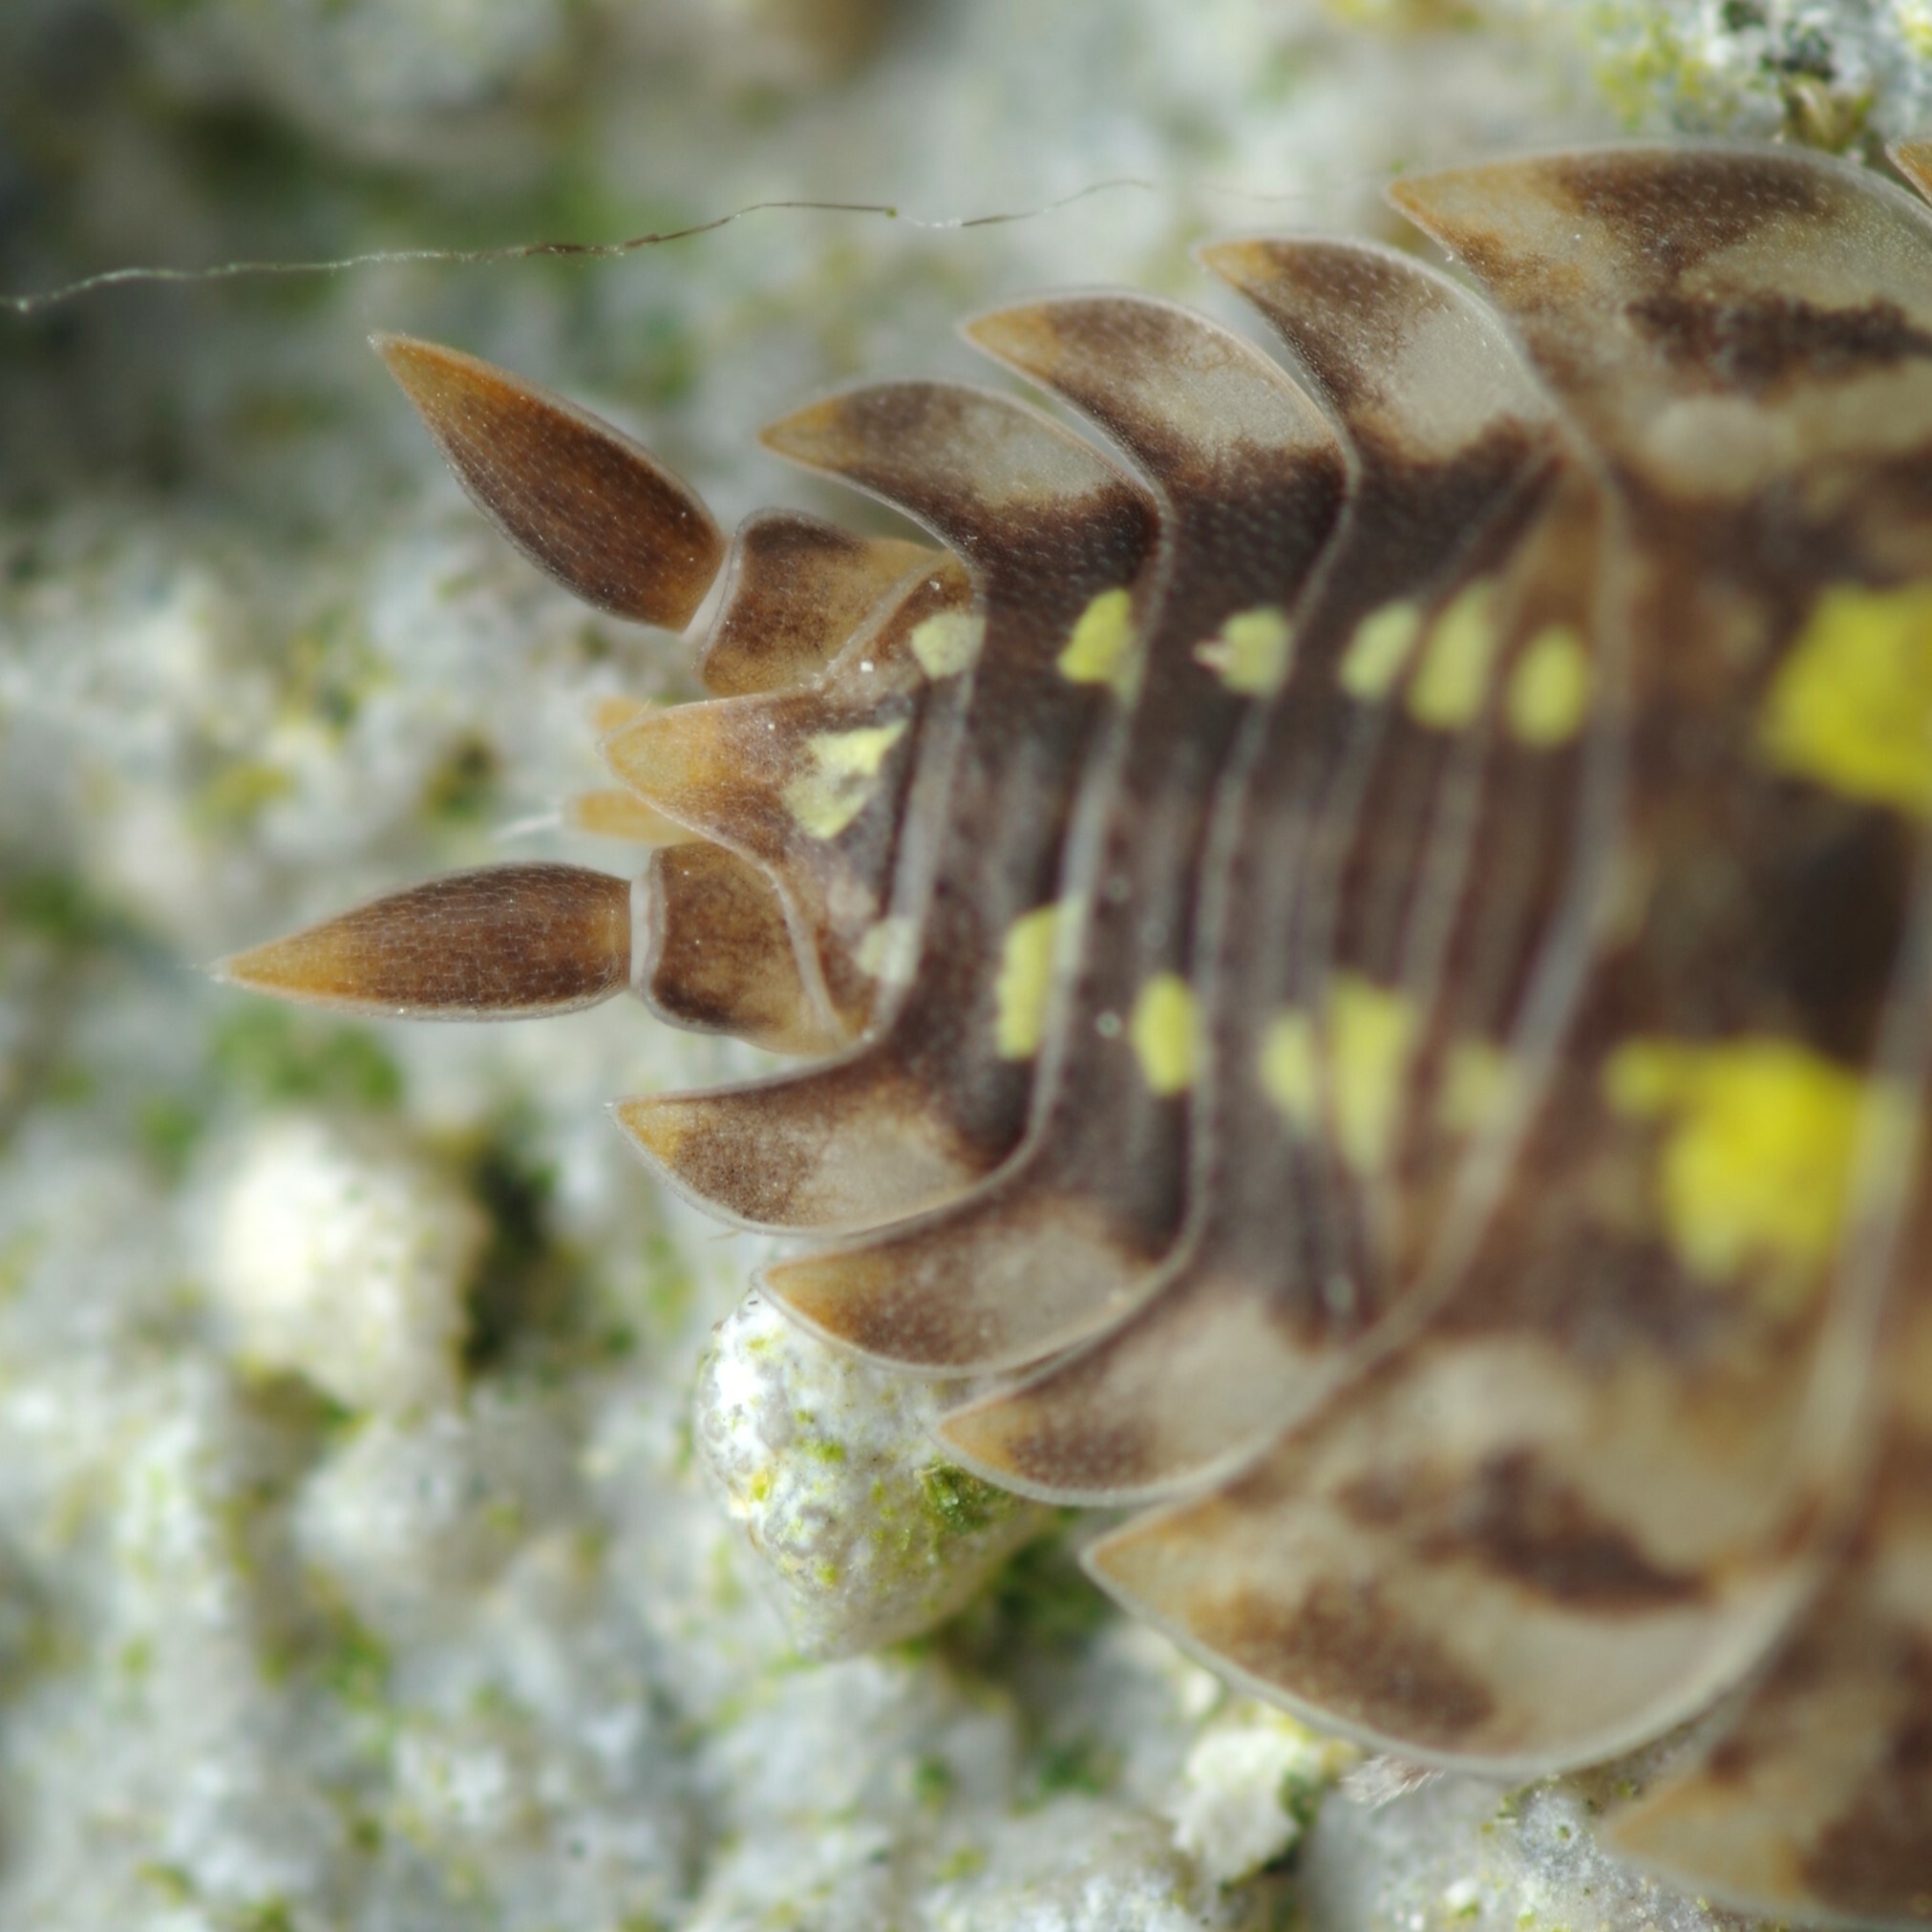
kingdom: Animalia
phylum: Arthropoda
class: Malacostraca
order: Isopoda
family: Porcellionidae
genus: Porcellio
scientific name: Porcellio spinicornis
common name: Painted woodlouse
